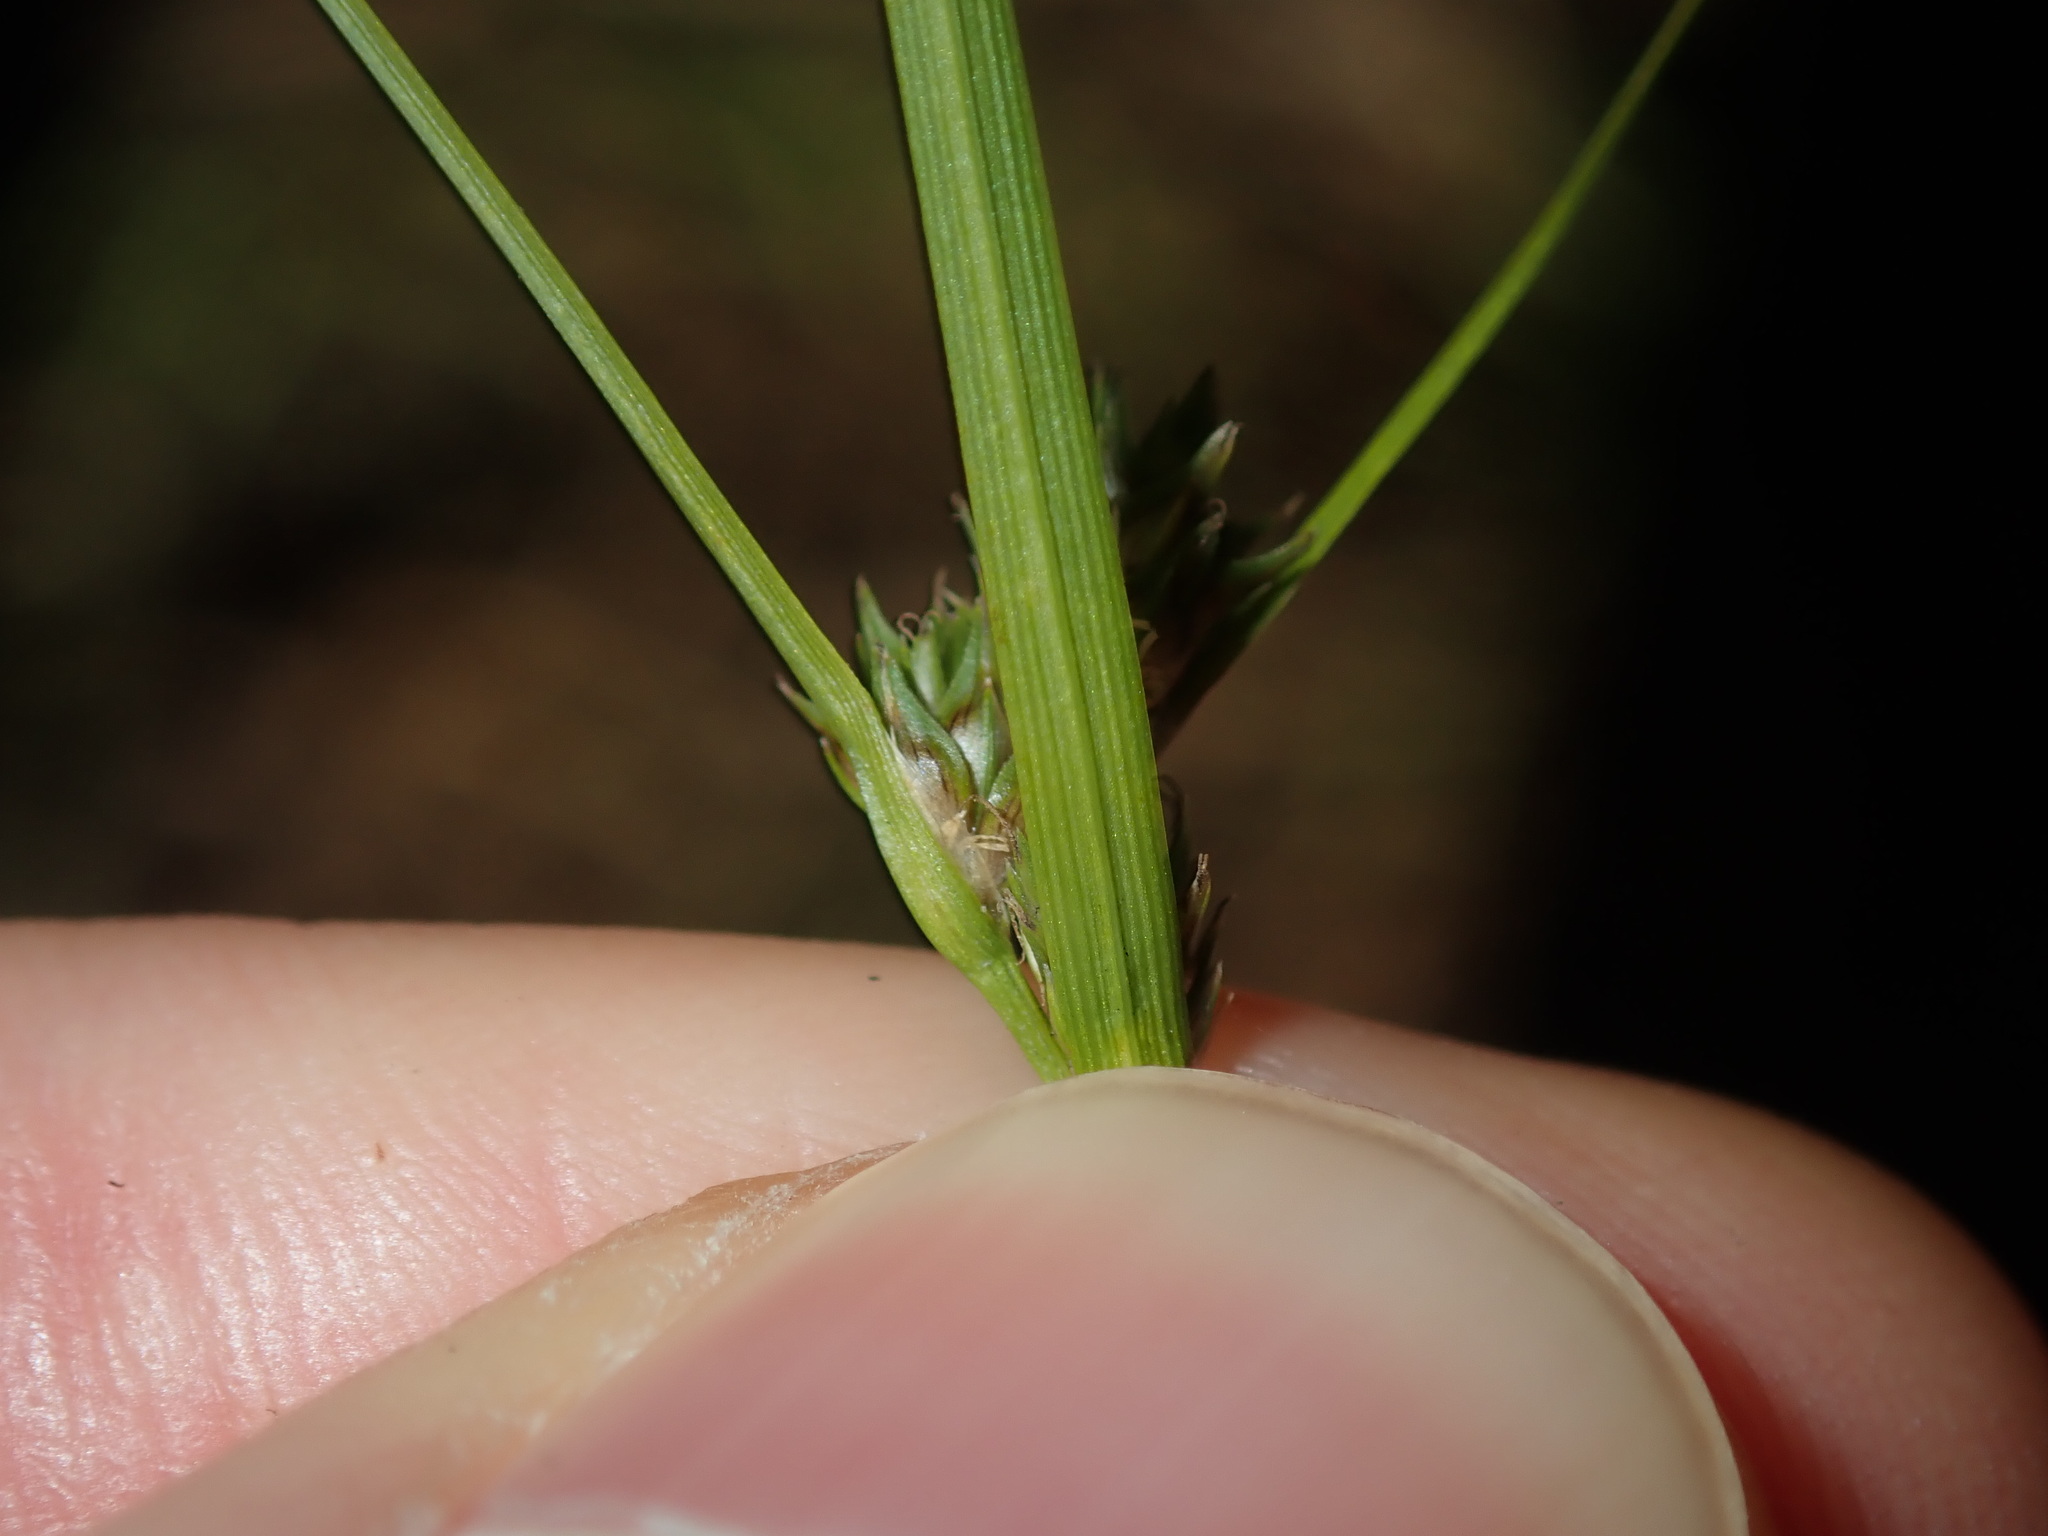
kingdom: Plantae
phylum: Tracheophyta
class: Liliopsida
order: Poales
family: Cyperaceae
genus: Carex
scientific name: Carex inversa
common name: Knob sedge
